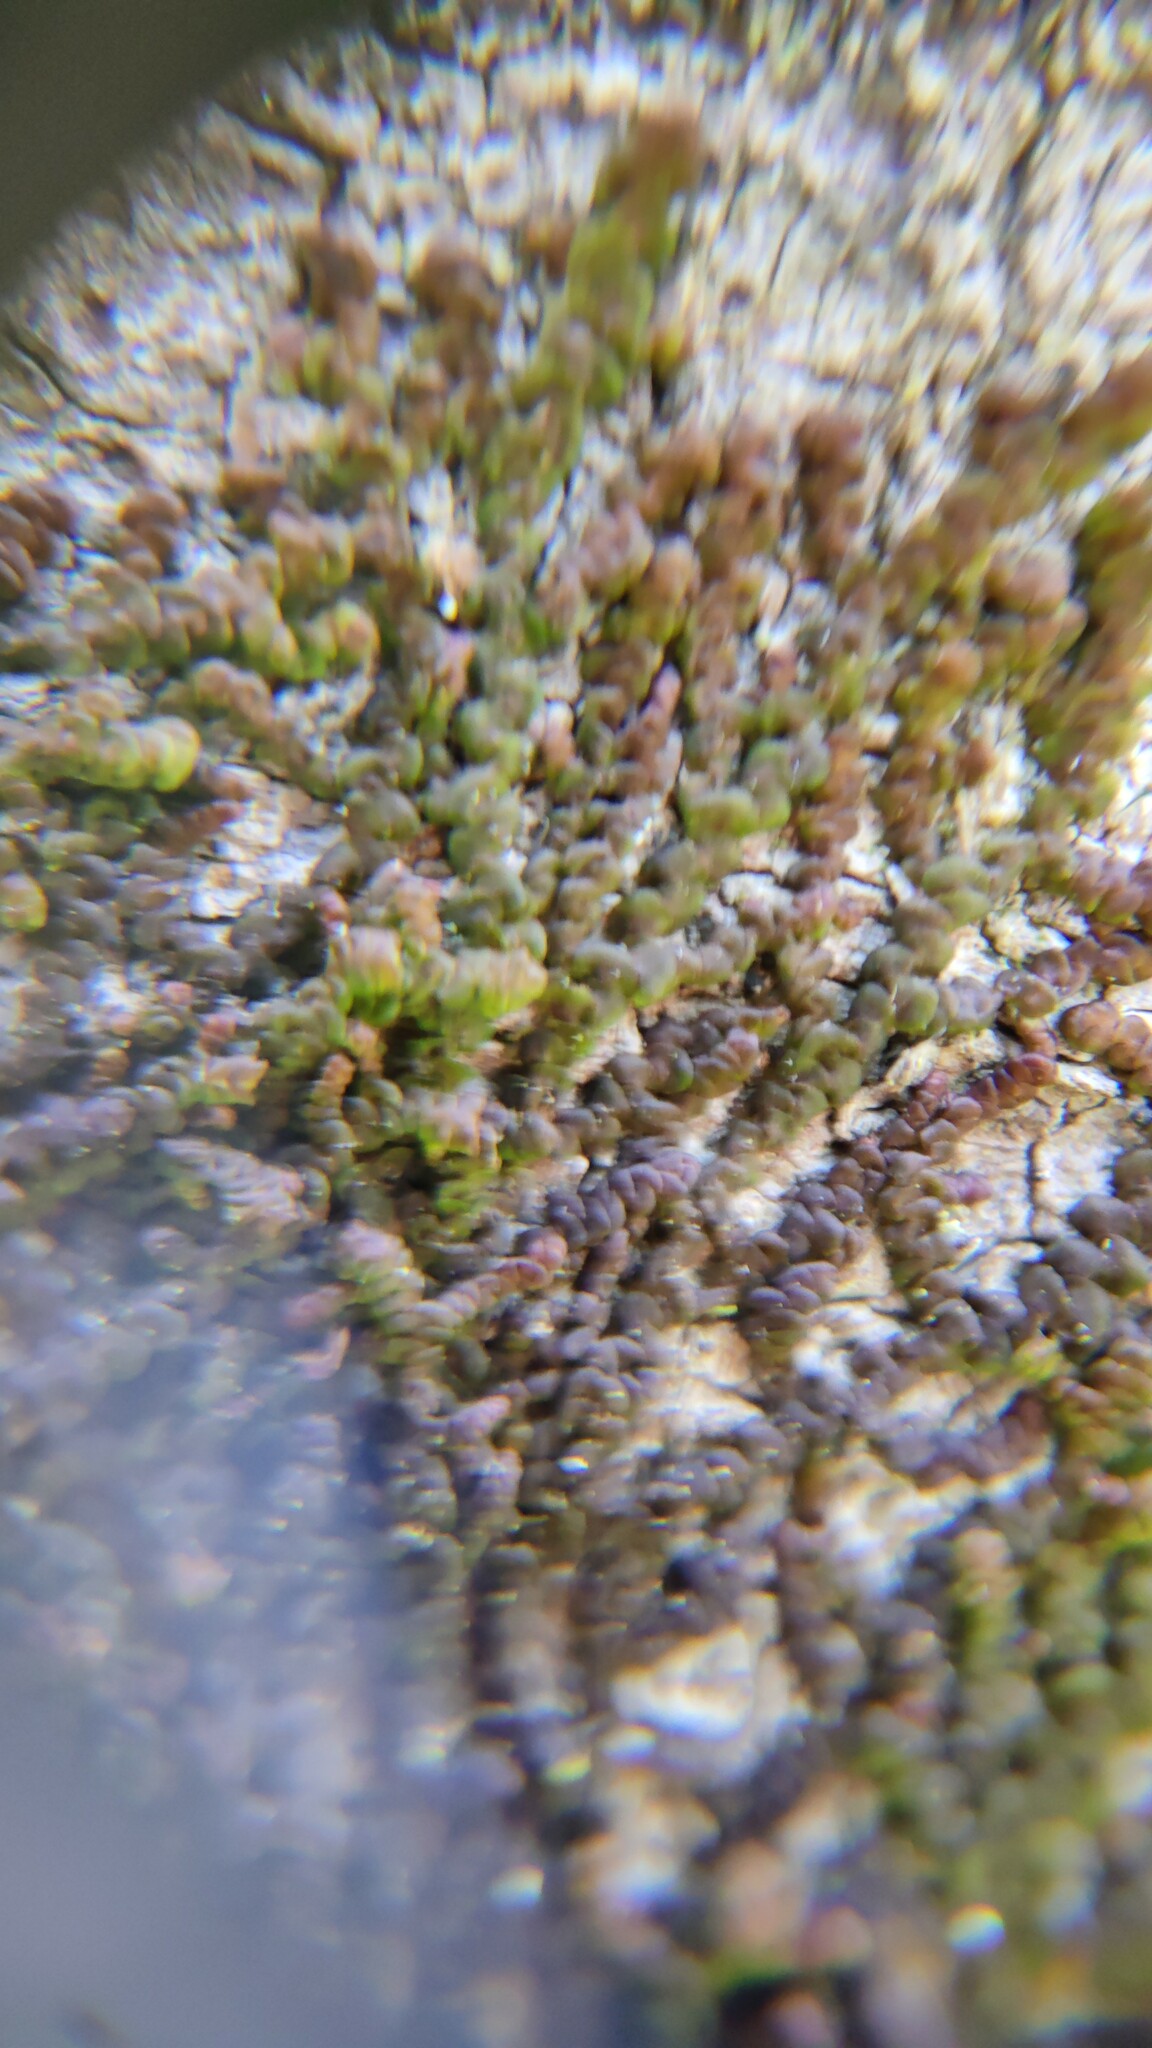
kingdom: Plantae
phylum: Marchantiophyta
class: Jungermanniopsida
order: Porellales
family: Frullaniaceae
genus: Frullania
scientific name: Frullania dilatata
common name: Dilated scalewort
